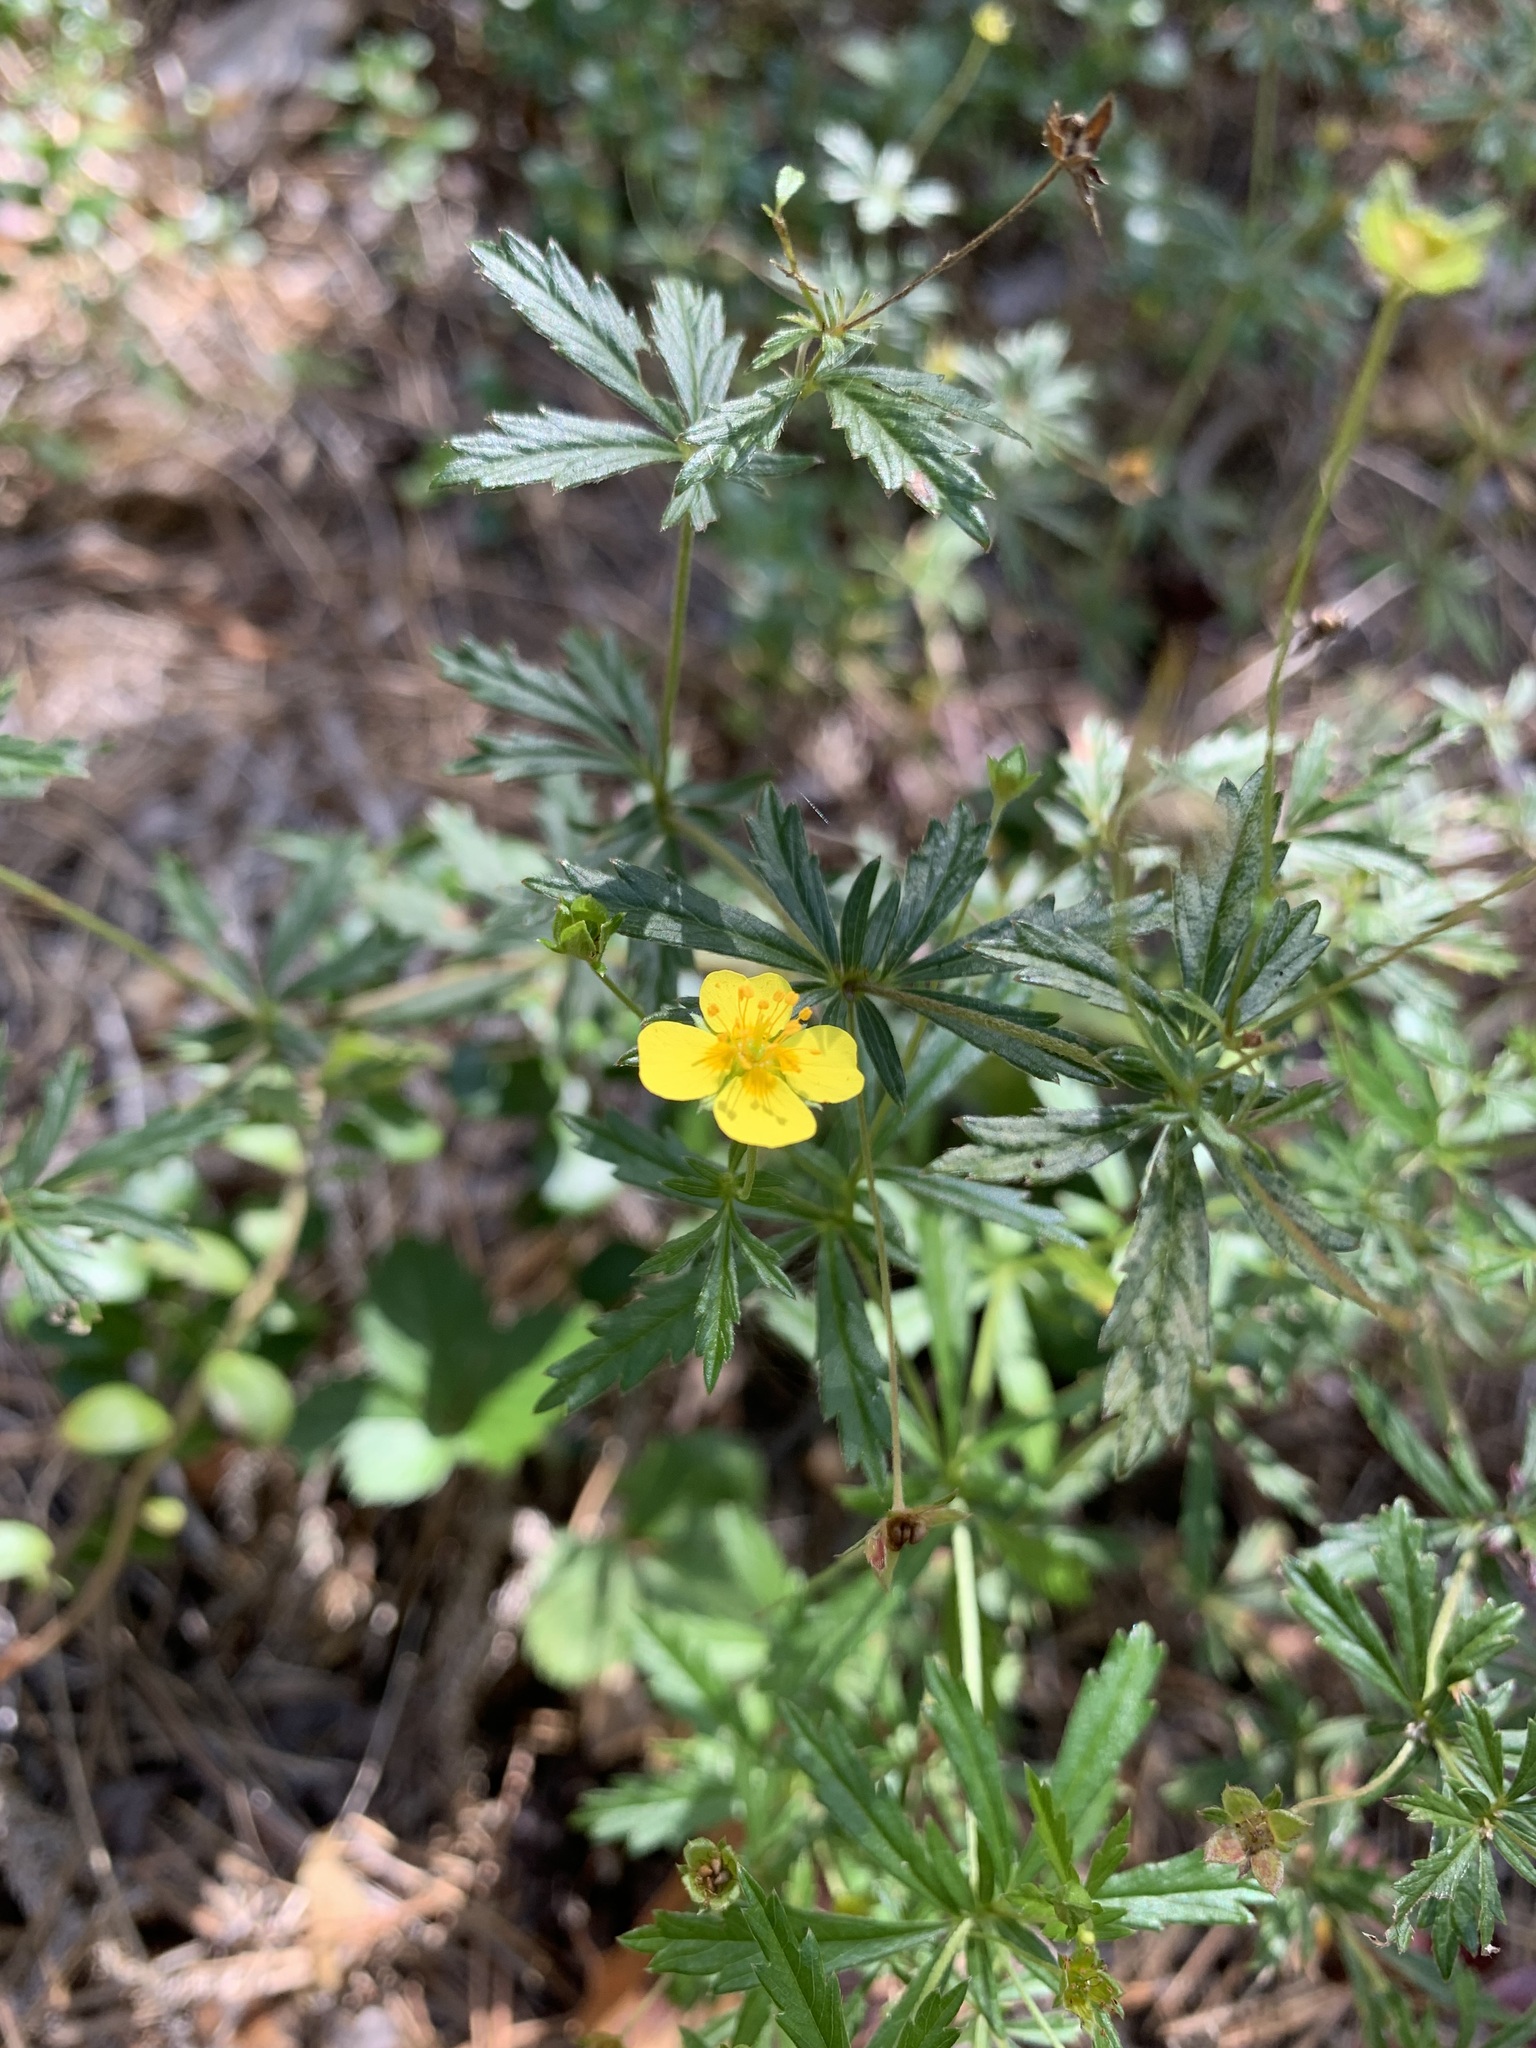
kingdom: Plantae
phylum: Tracheophyta
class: Magnoliopsida
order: Rosales
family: Rosaceae
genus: Potentilla
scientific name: Potentilla erecta
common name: Tormentil
